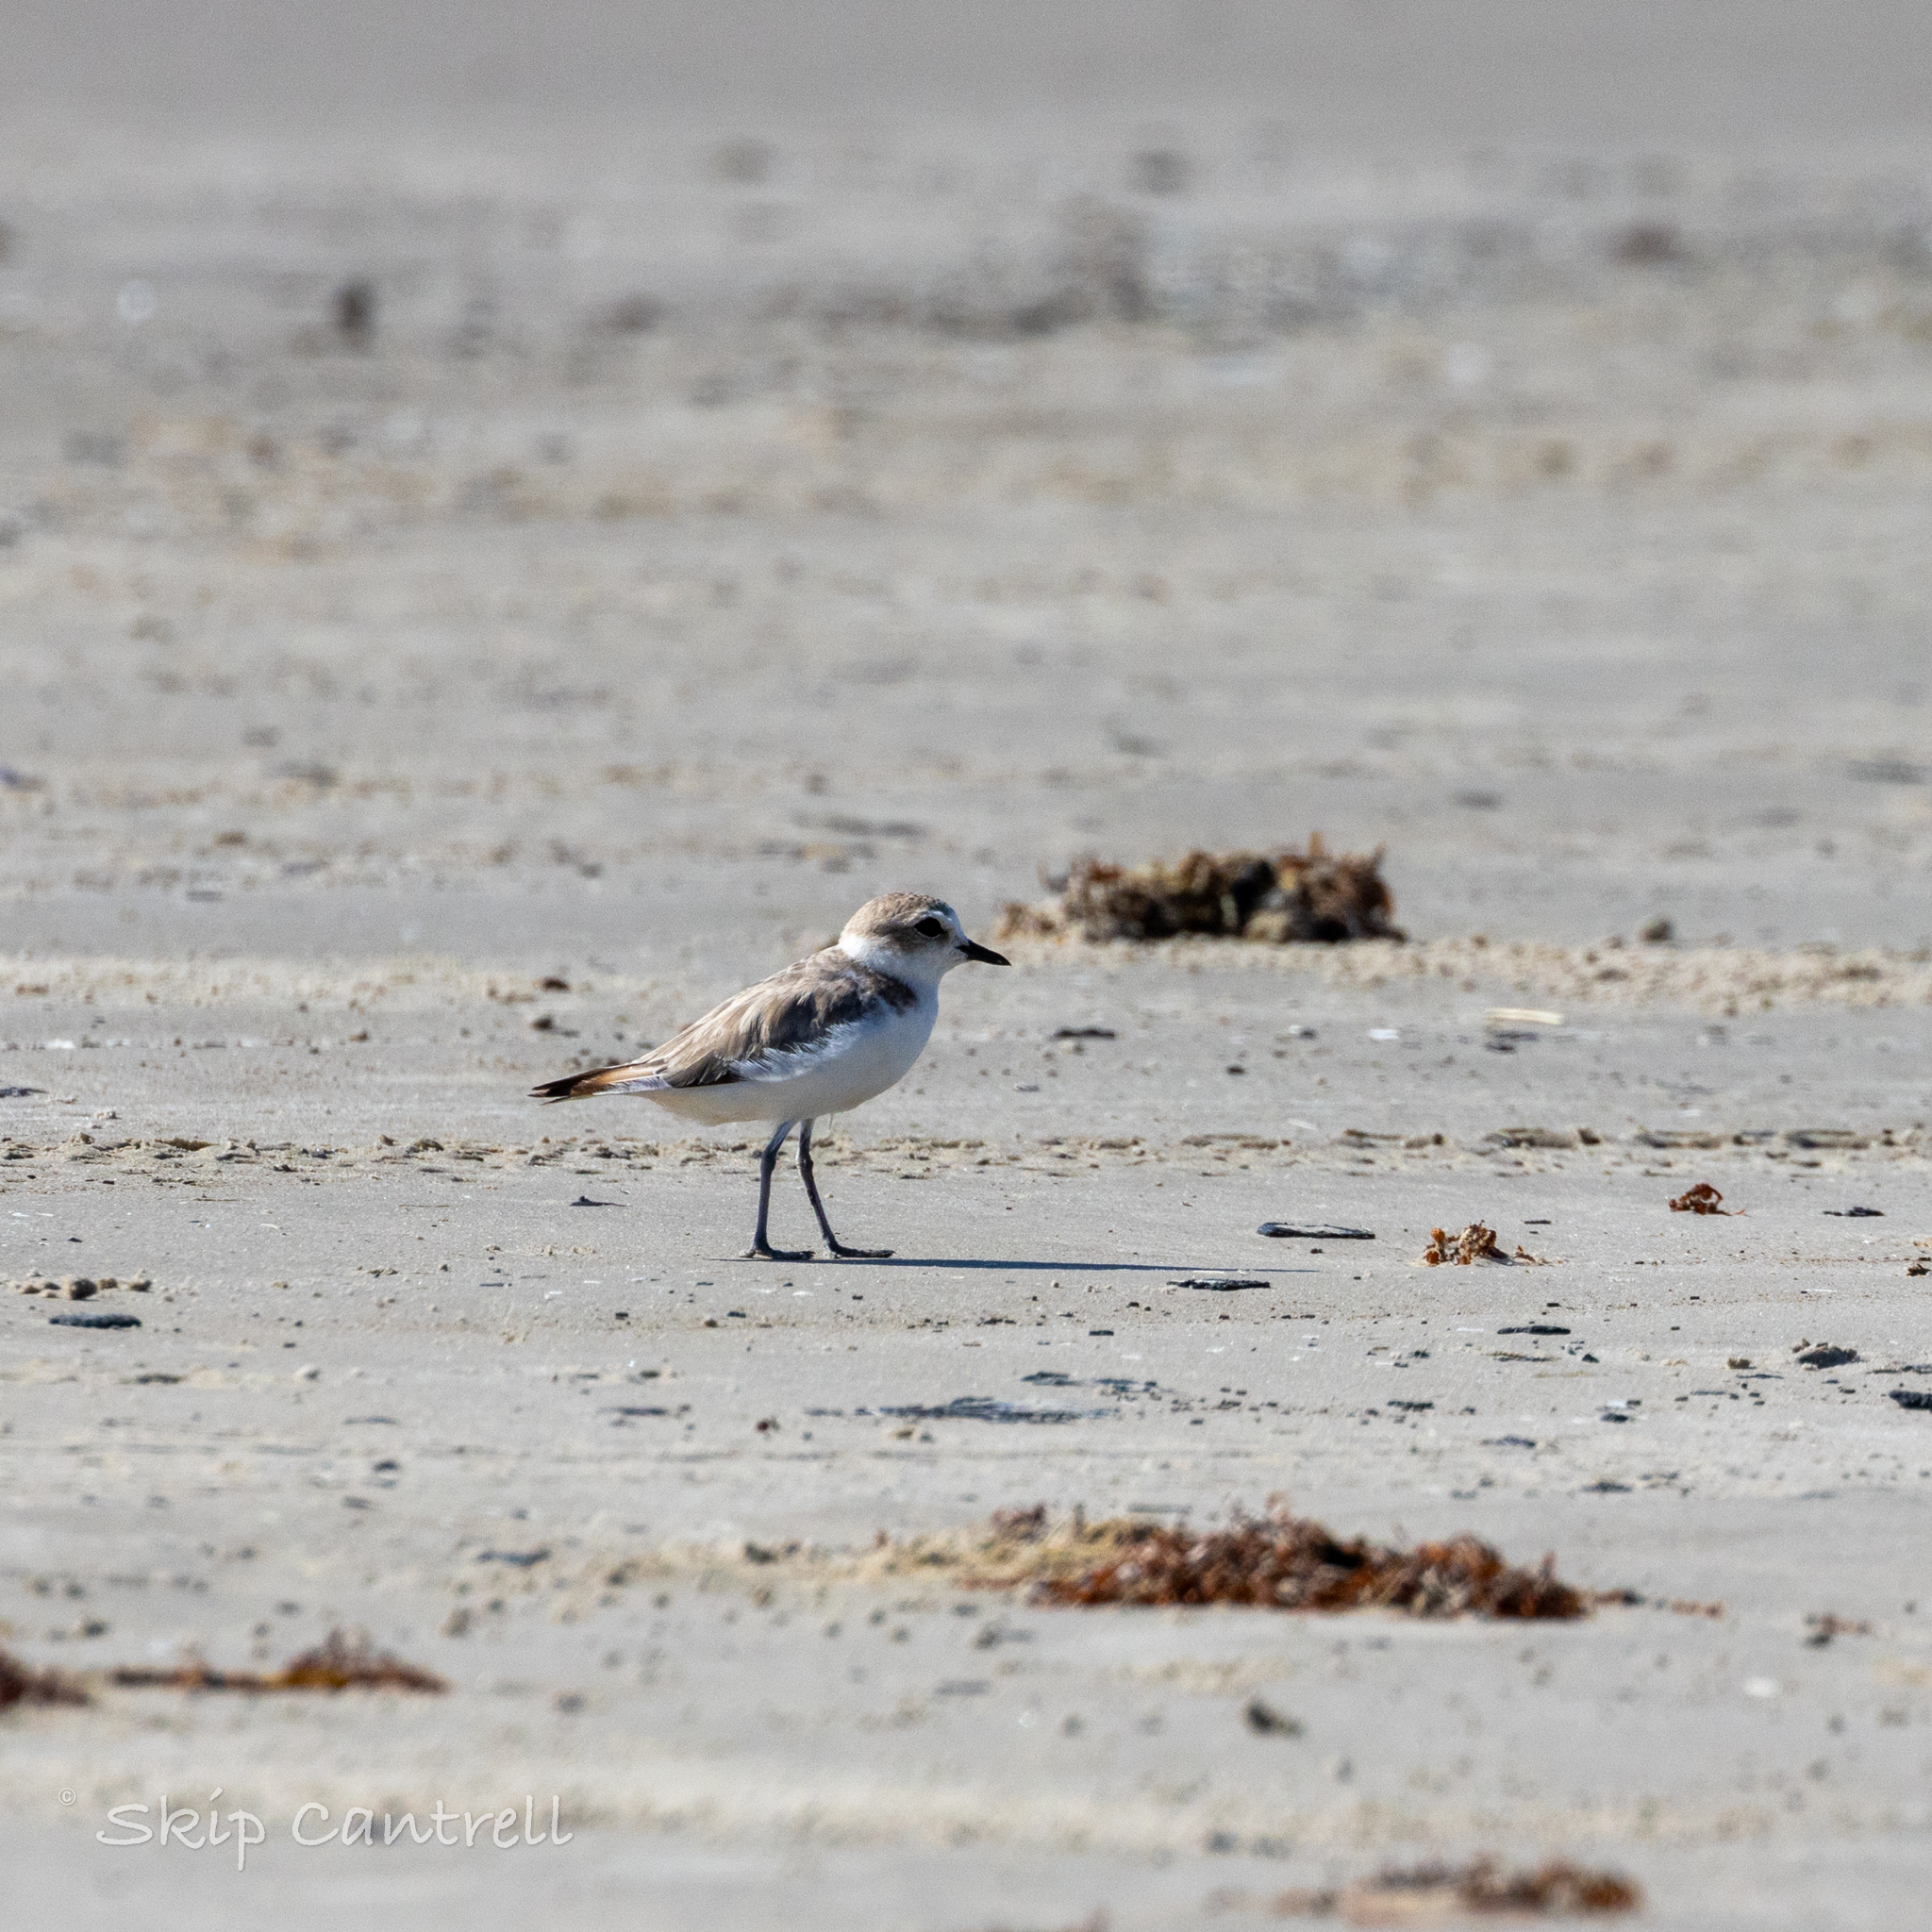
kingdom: Animalia
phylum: Chordata
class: Aves
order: Charadriiformes
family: Charadriidae
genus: Anarhynchus
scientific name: Anarhynchus
